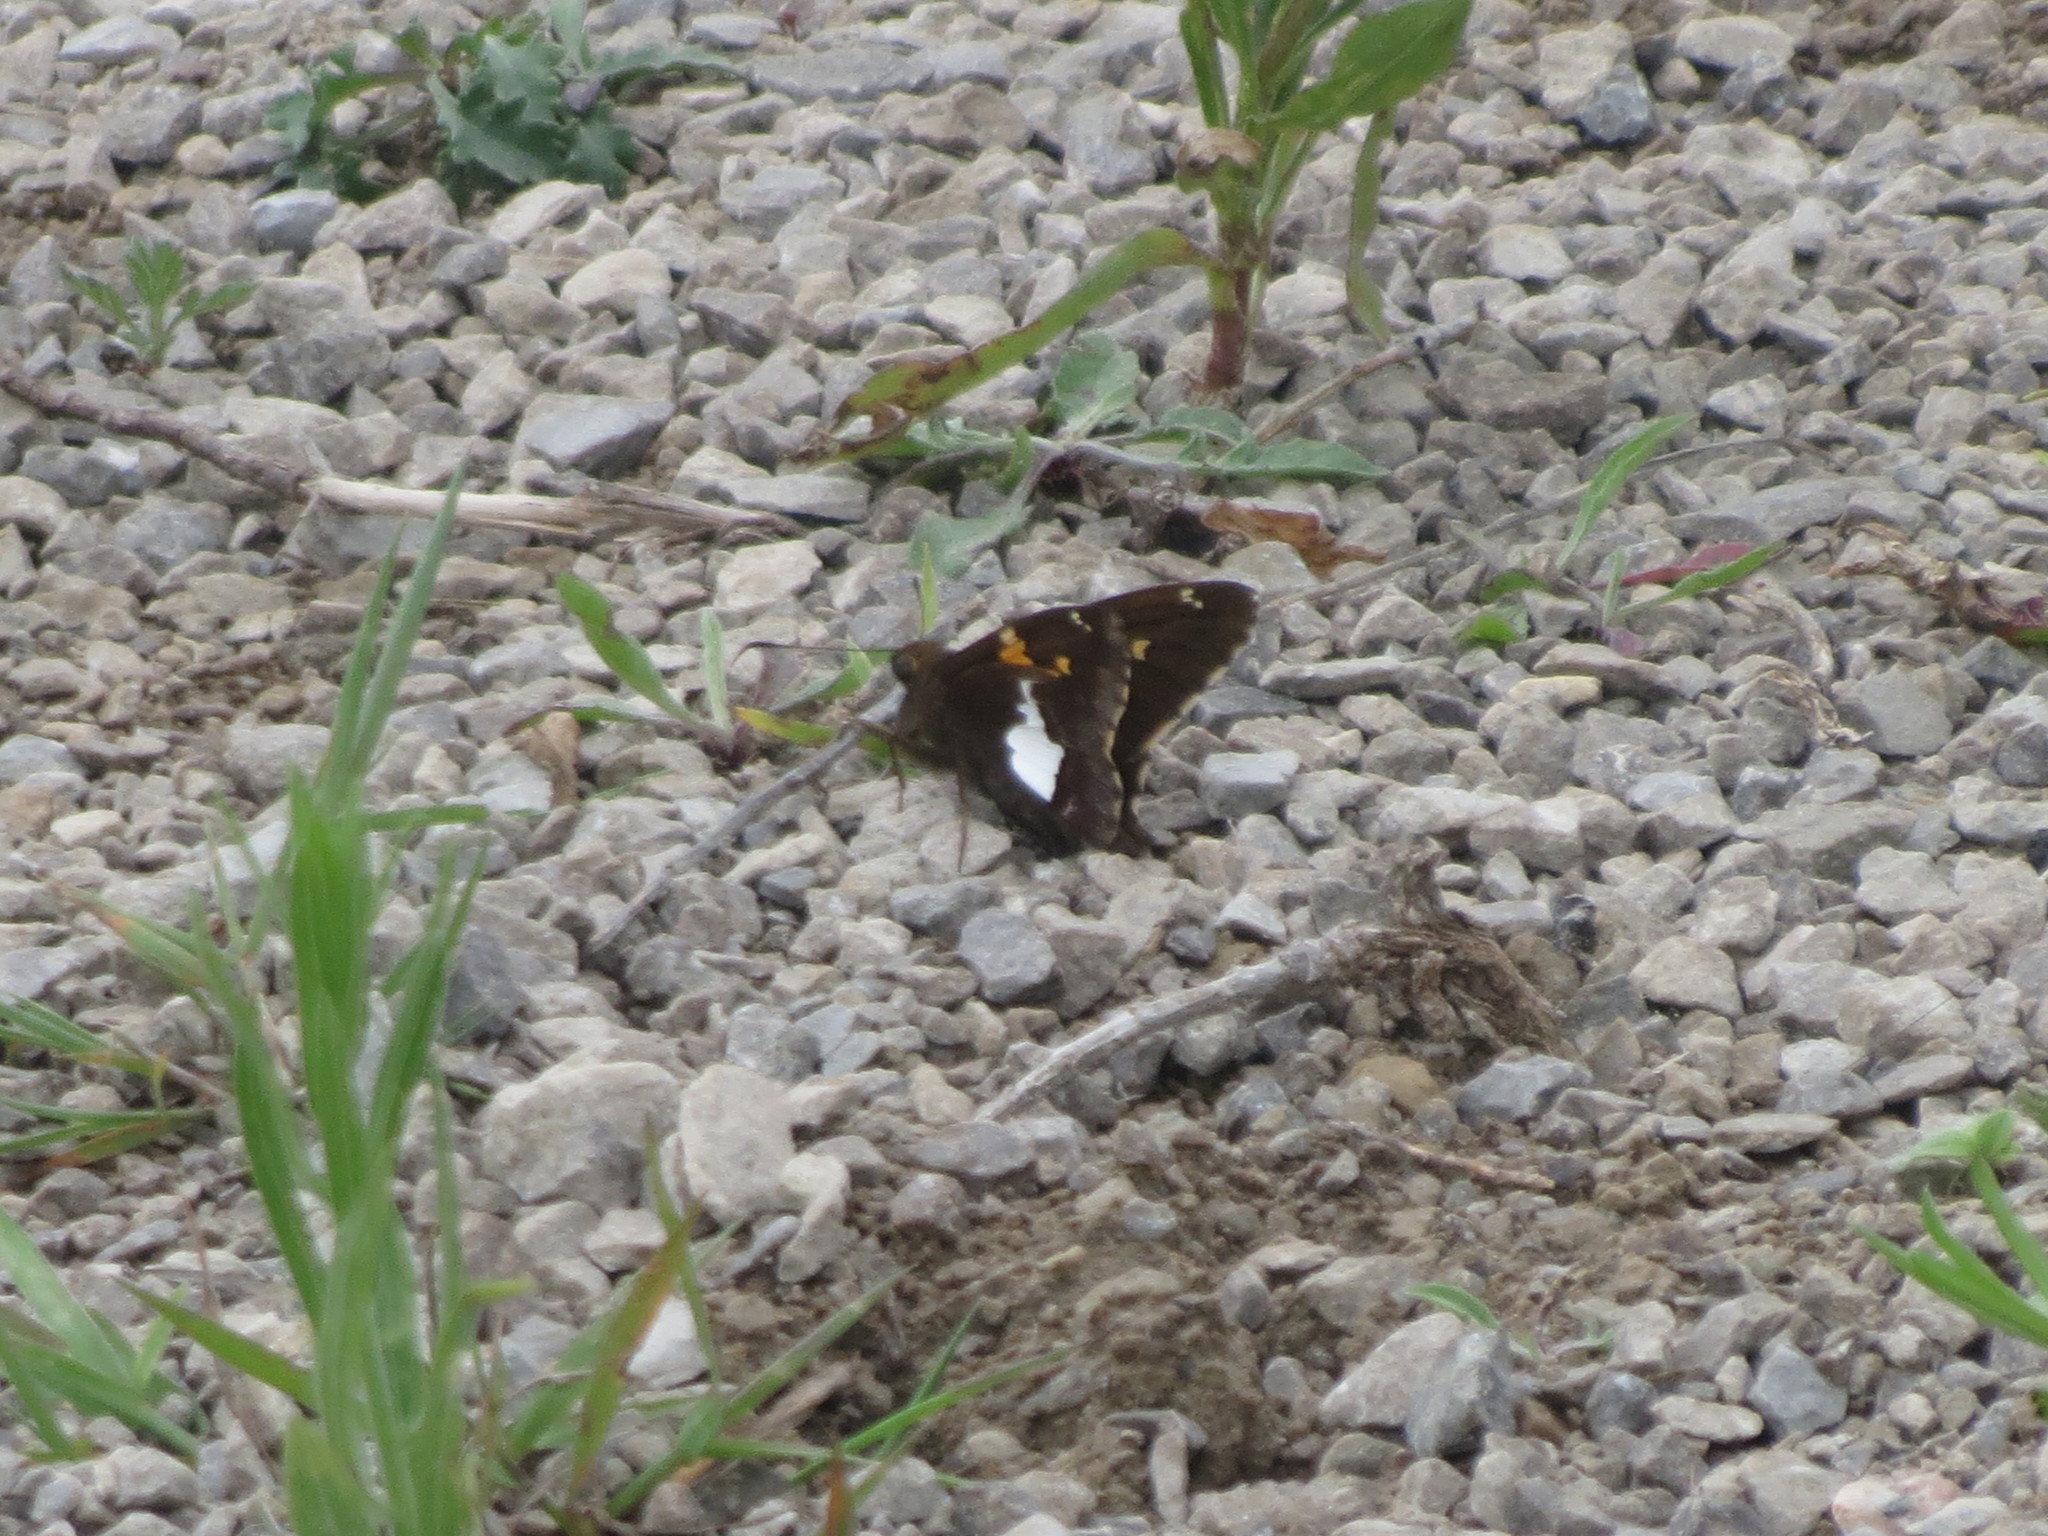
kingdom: Animalia
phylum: Arthropoda
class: Insecta
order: Lepidoptera
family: Hesperiidae
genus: Epargyreus
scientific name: Epargyreus clarus
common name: Silver-spotted skipper
